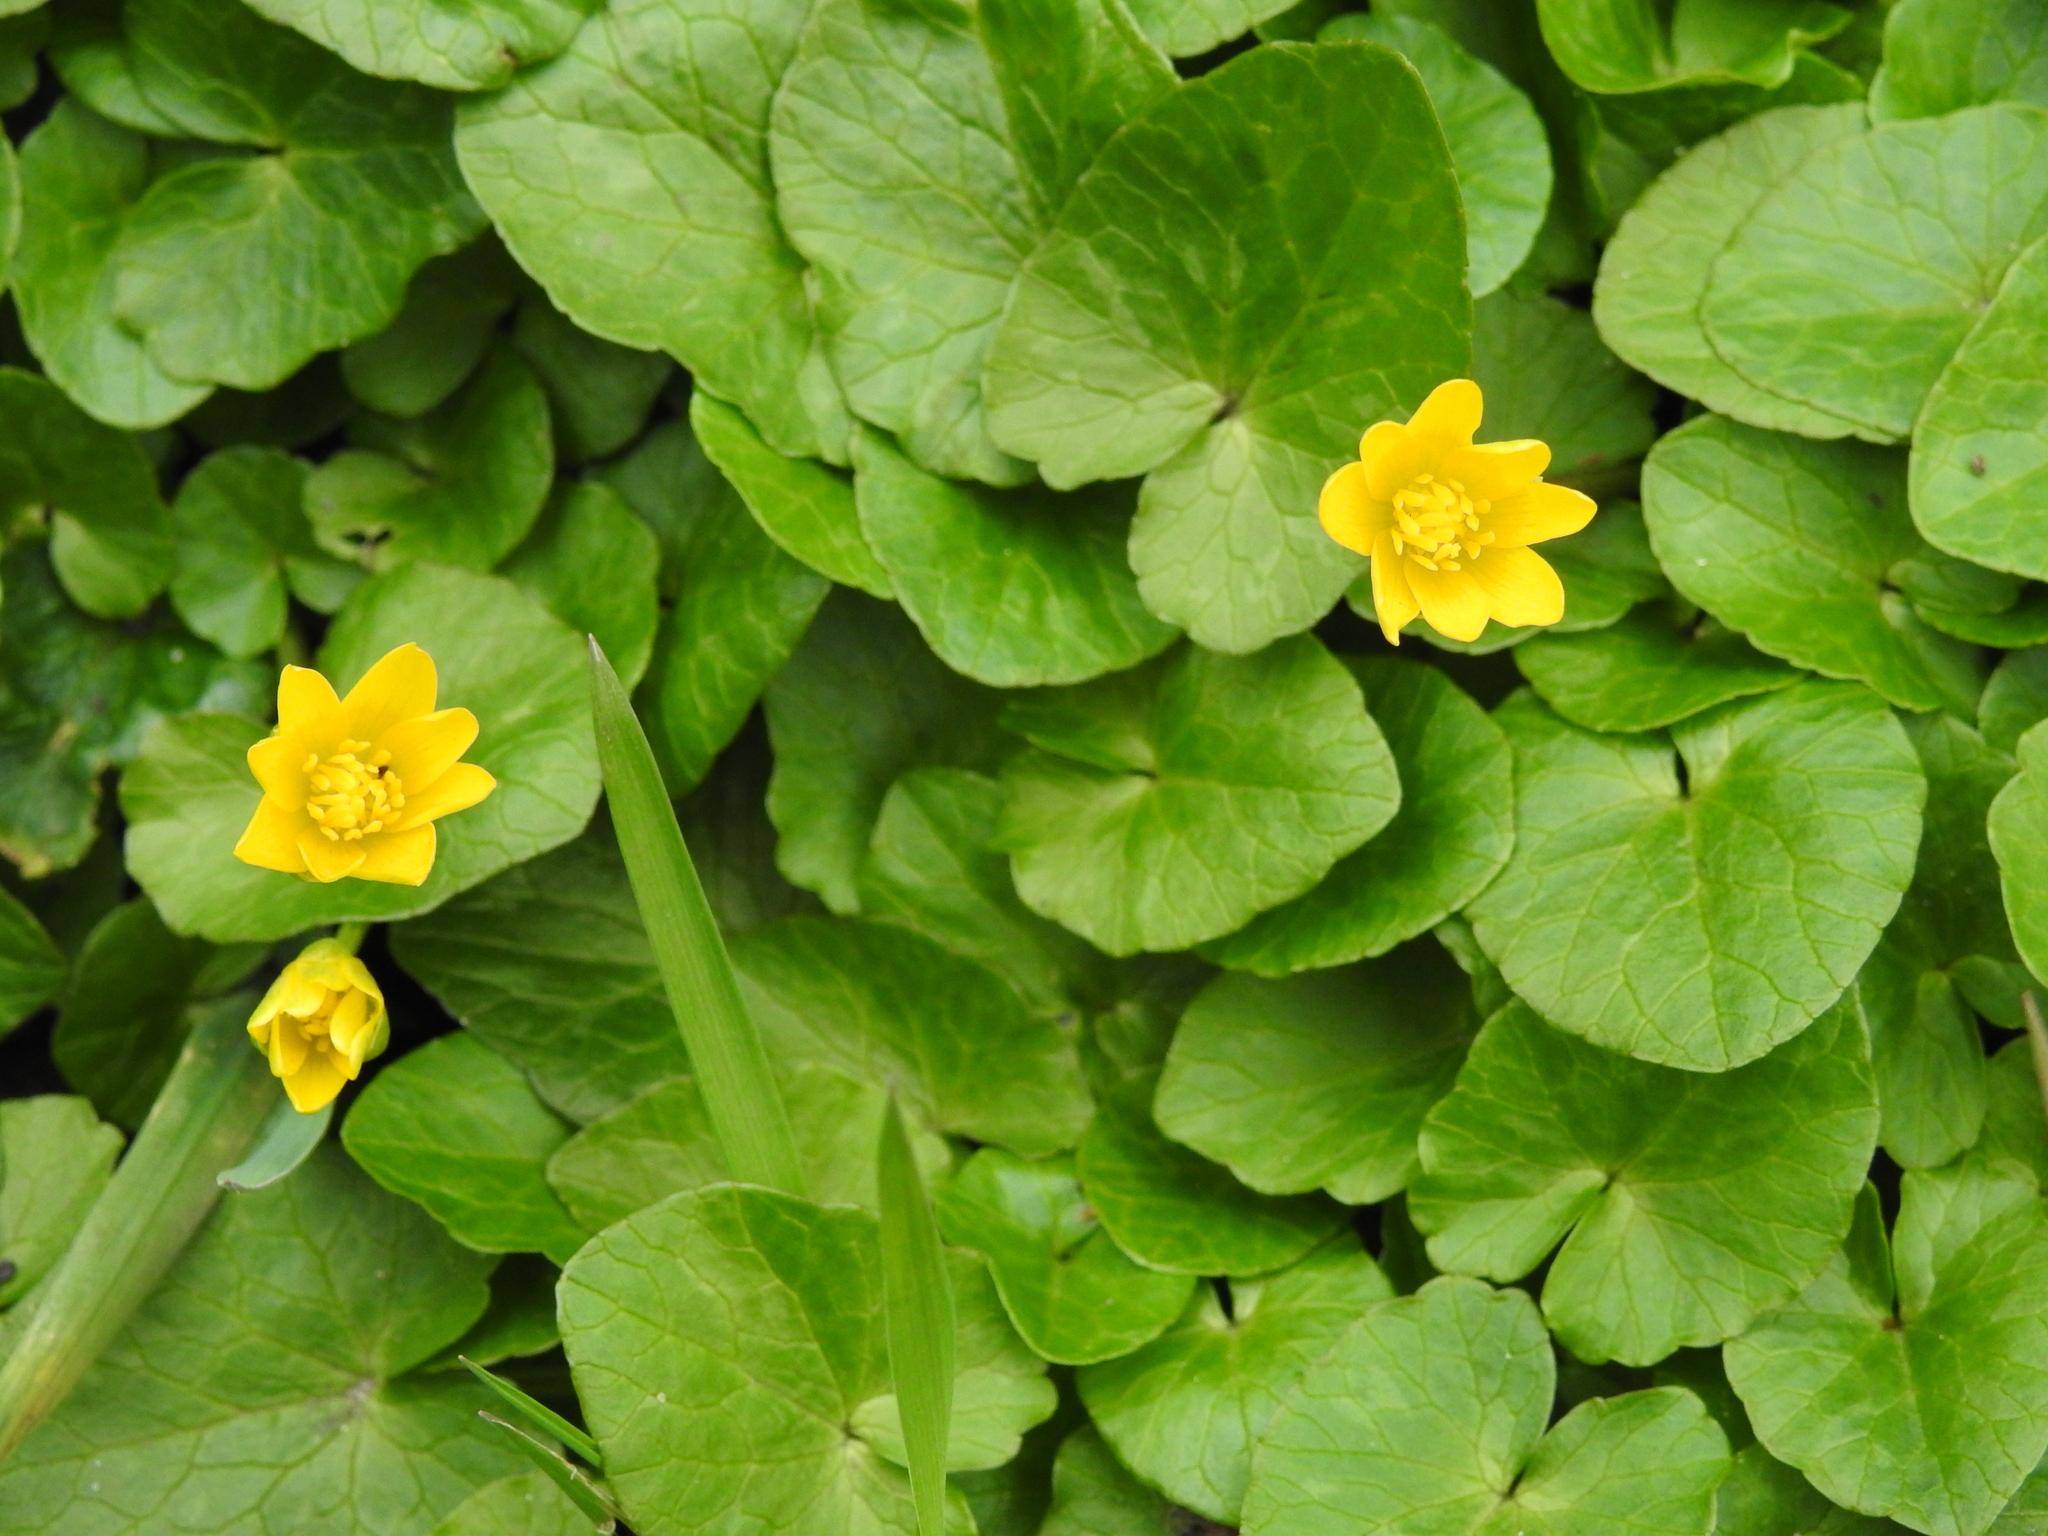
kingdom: Plantae
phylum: Tracheophyta
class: Magnoliopsida
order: Ranunculales
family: Ranunculaceae
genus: Ficaria
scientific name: Ficaria verna
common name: Lesser celandine
